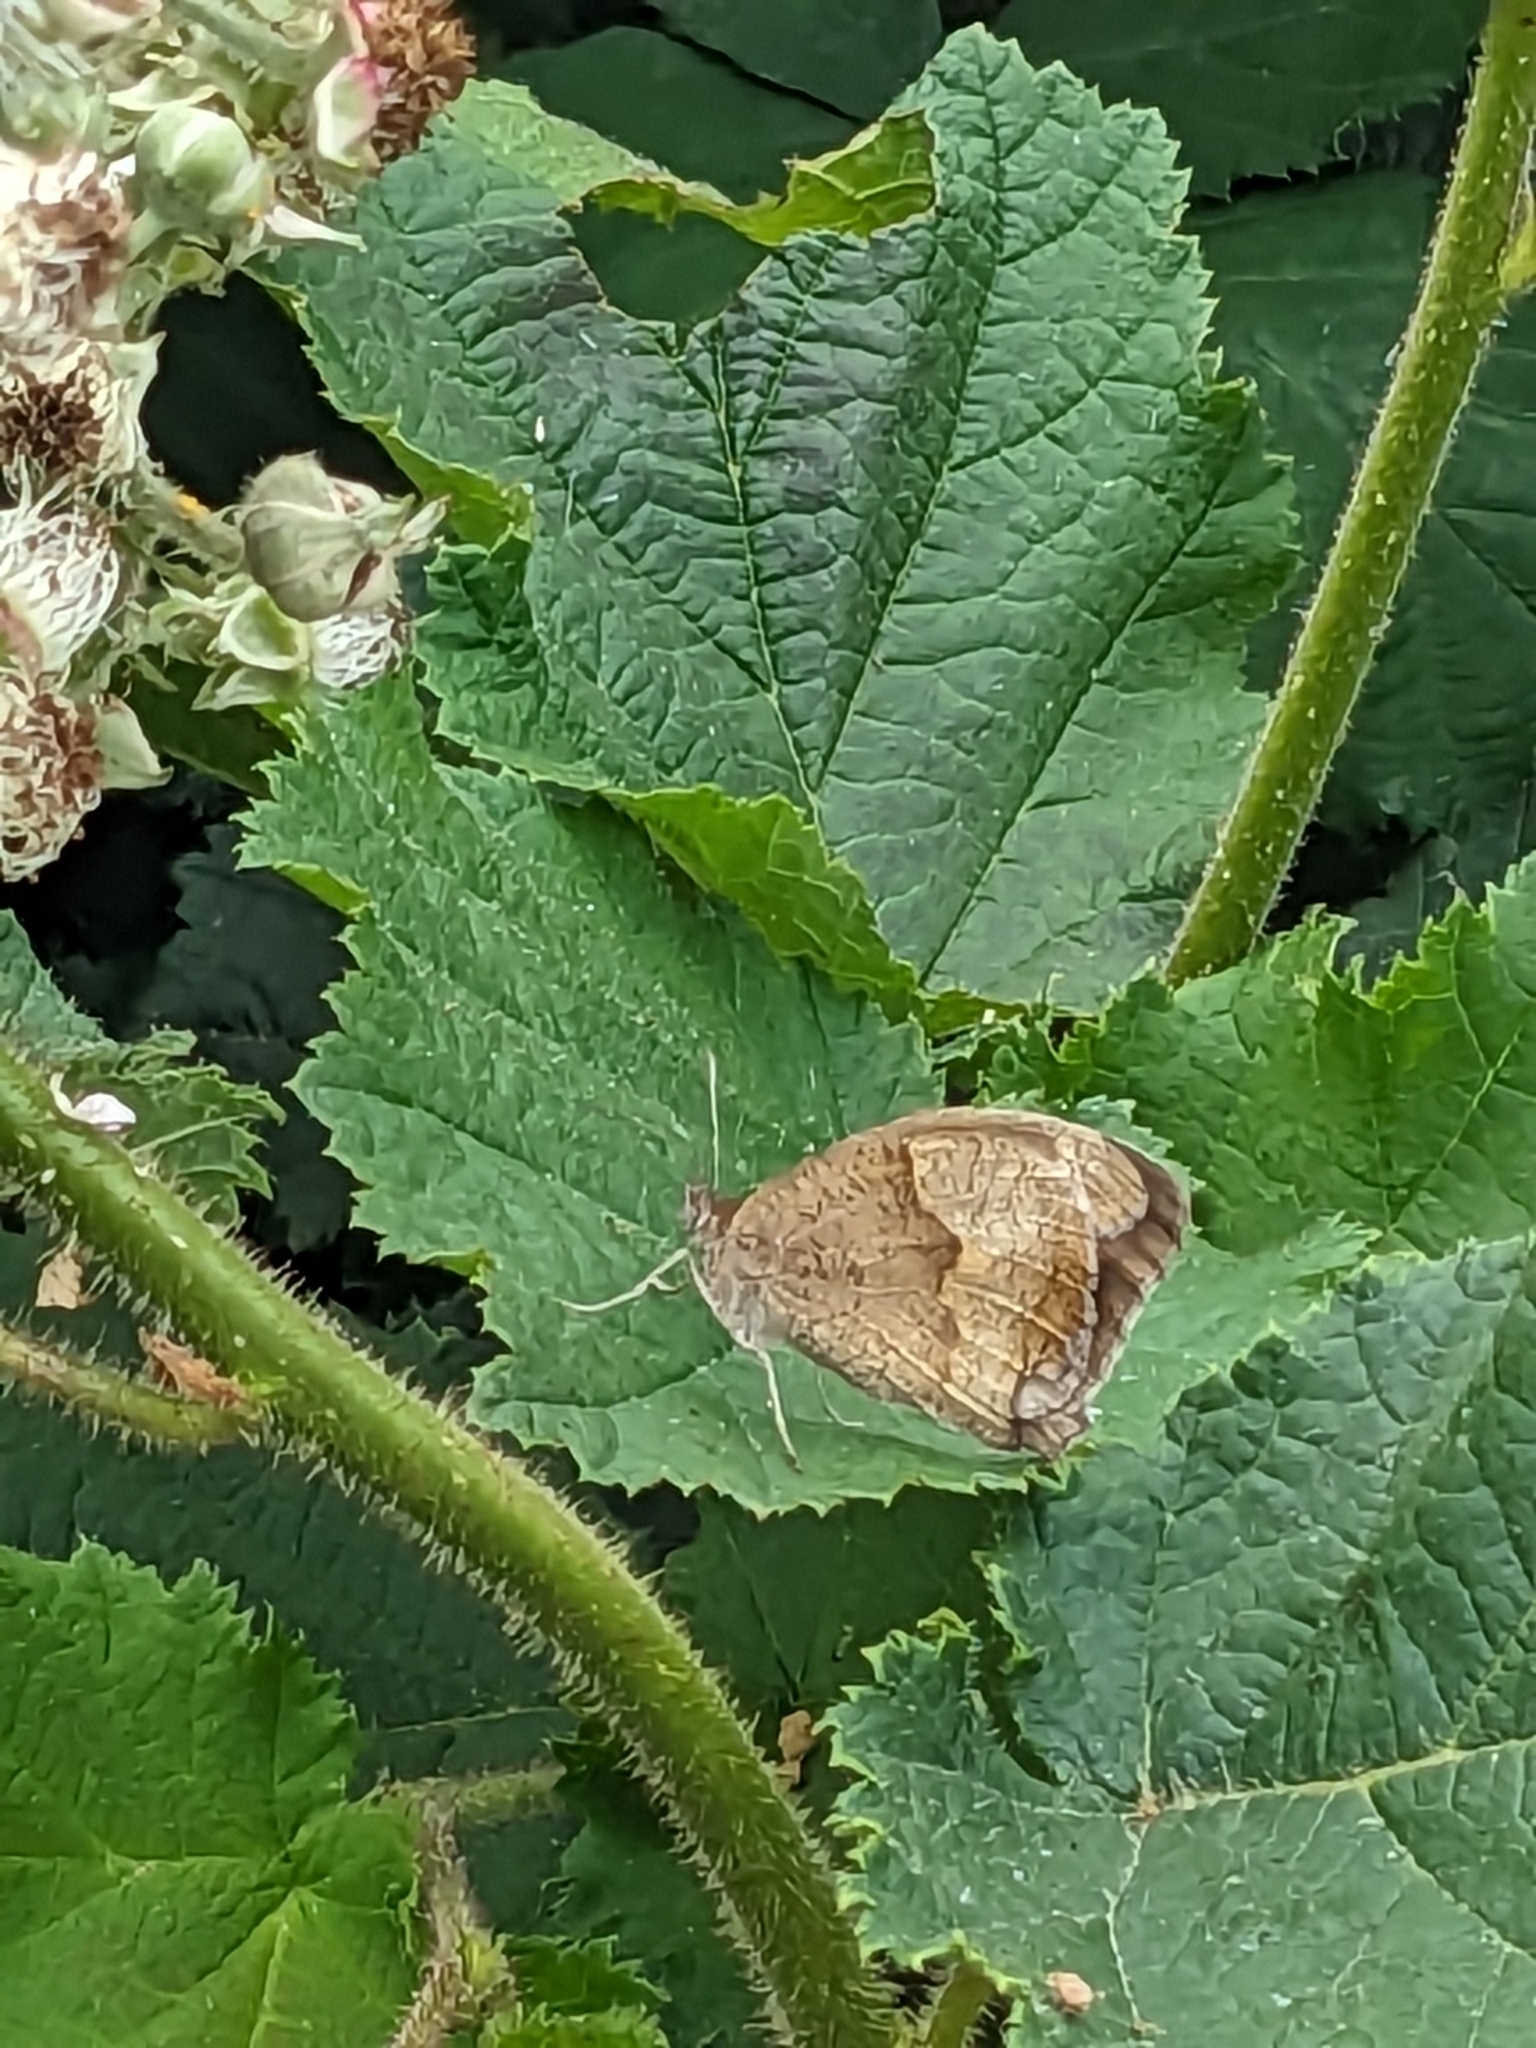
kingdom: Animalia
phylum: Arthropoda
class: Insecta
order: Lepidoptera
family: Nymphalidae
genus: Maniola
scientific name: Maniola jurtina
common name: Meadow brown
